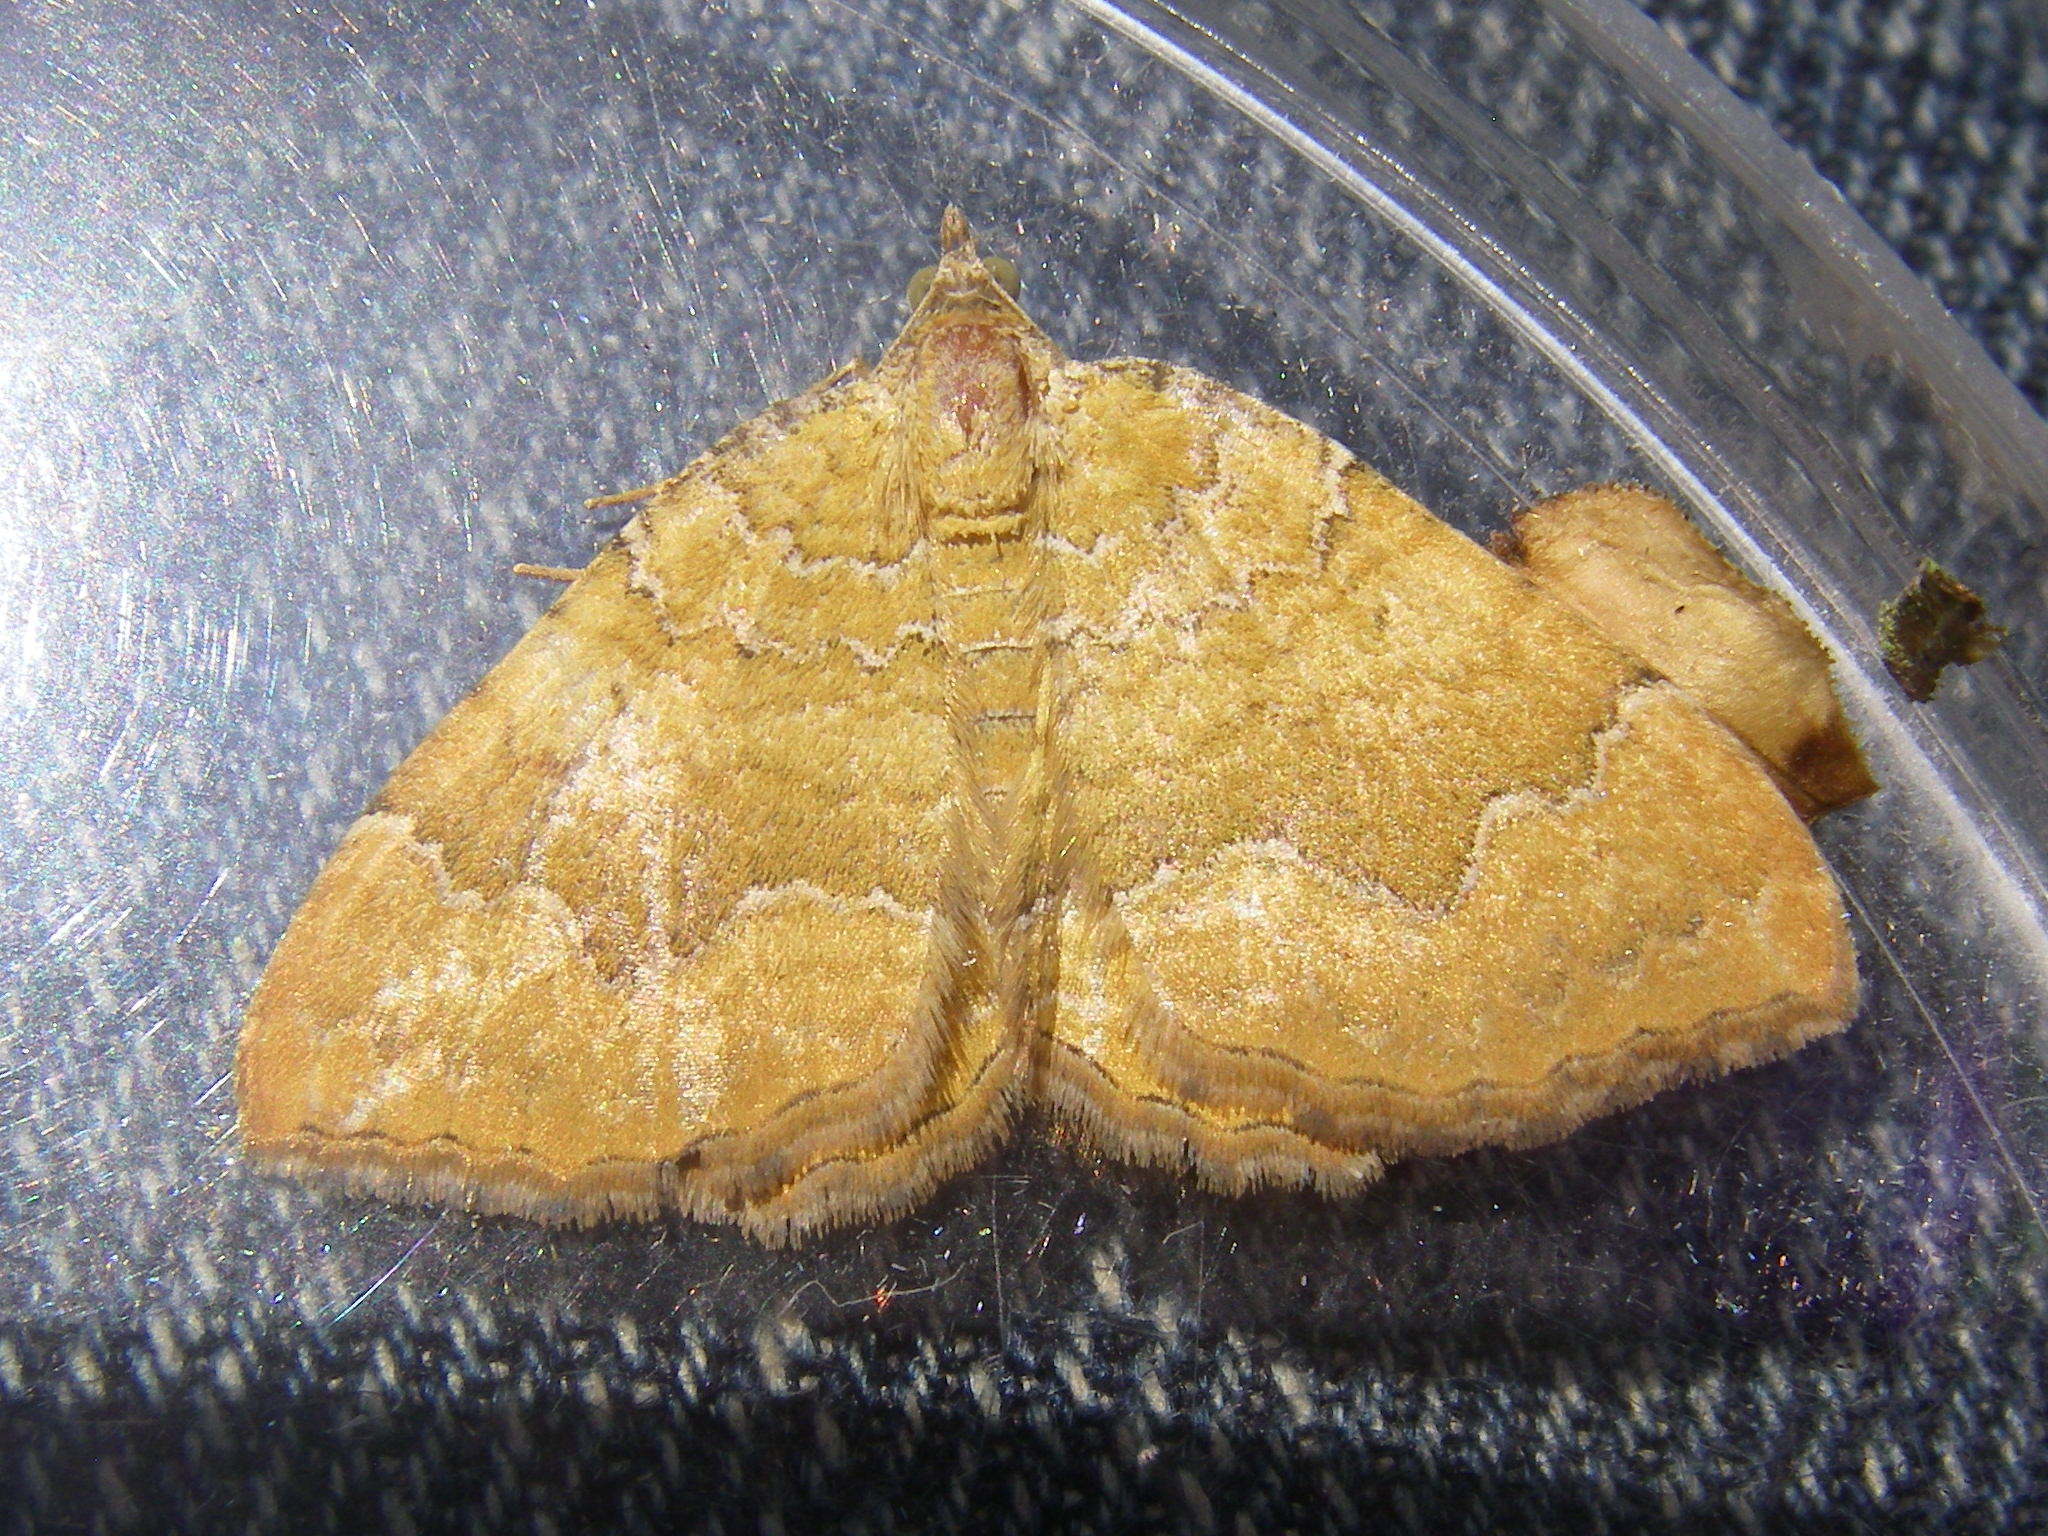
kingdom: Animalia
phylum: Arthropoda
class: Insecta
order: Lepidoptera
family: Geometridae
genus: Camptogramma
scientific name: Camptogramma bilineata
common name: Yellow shell
